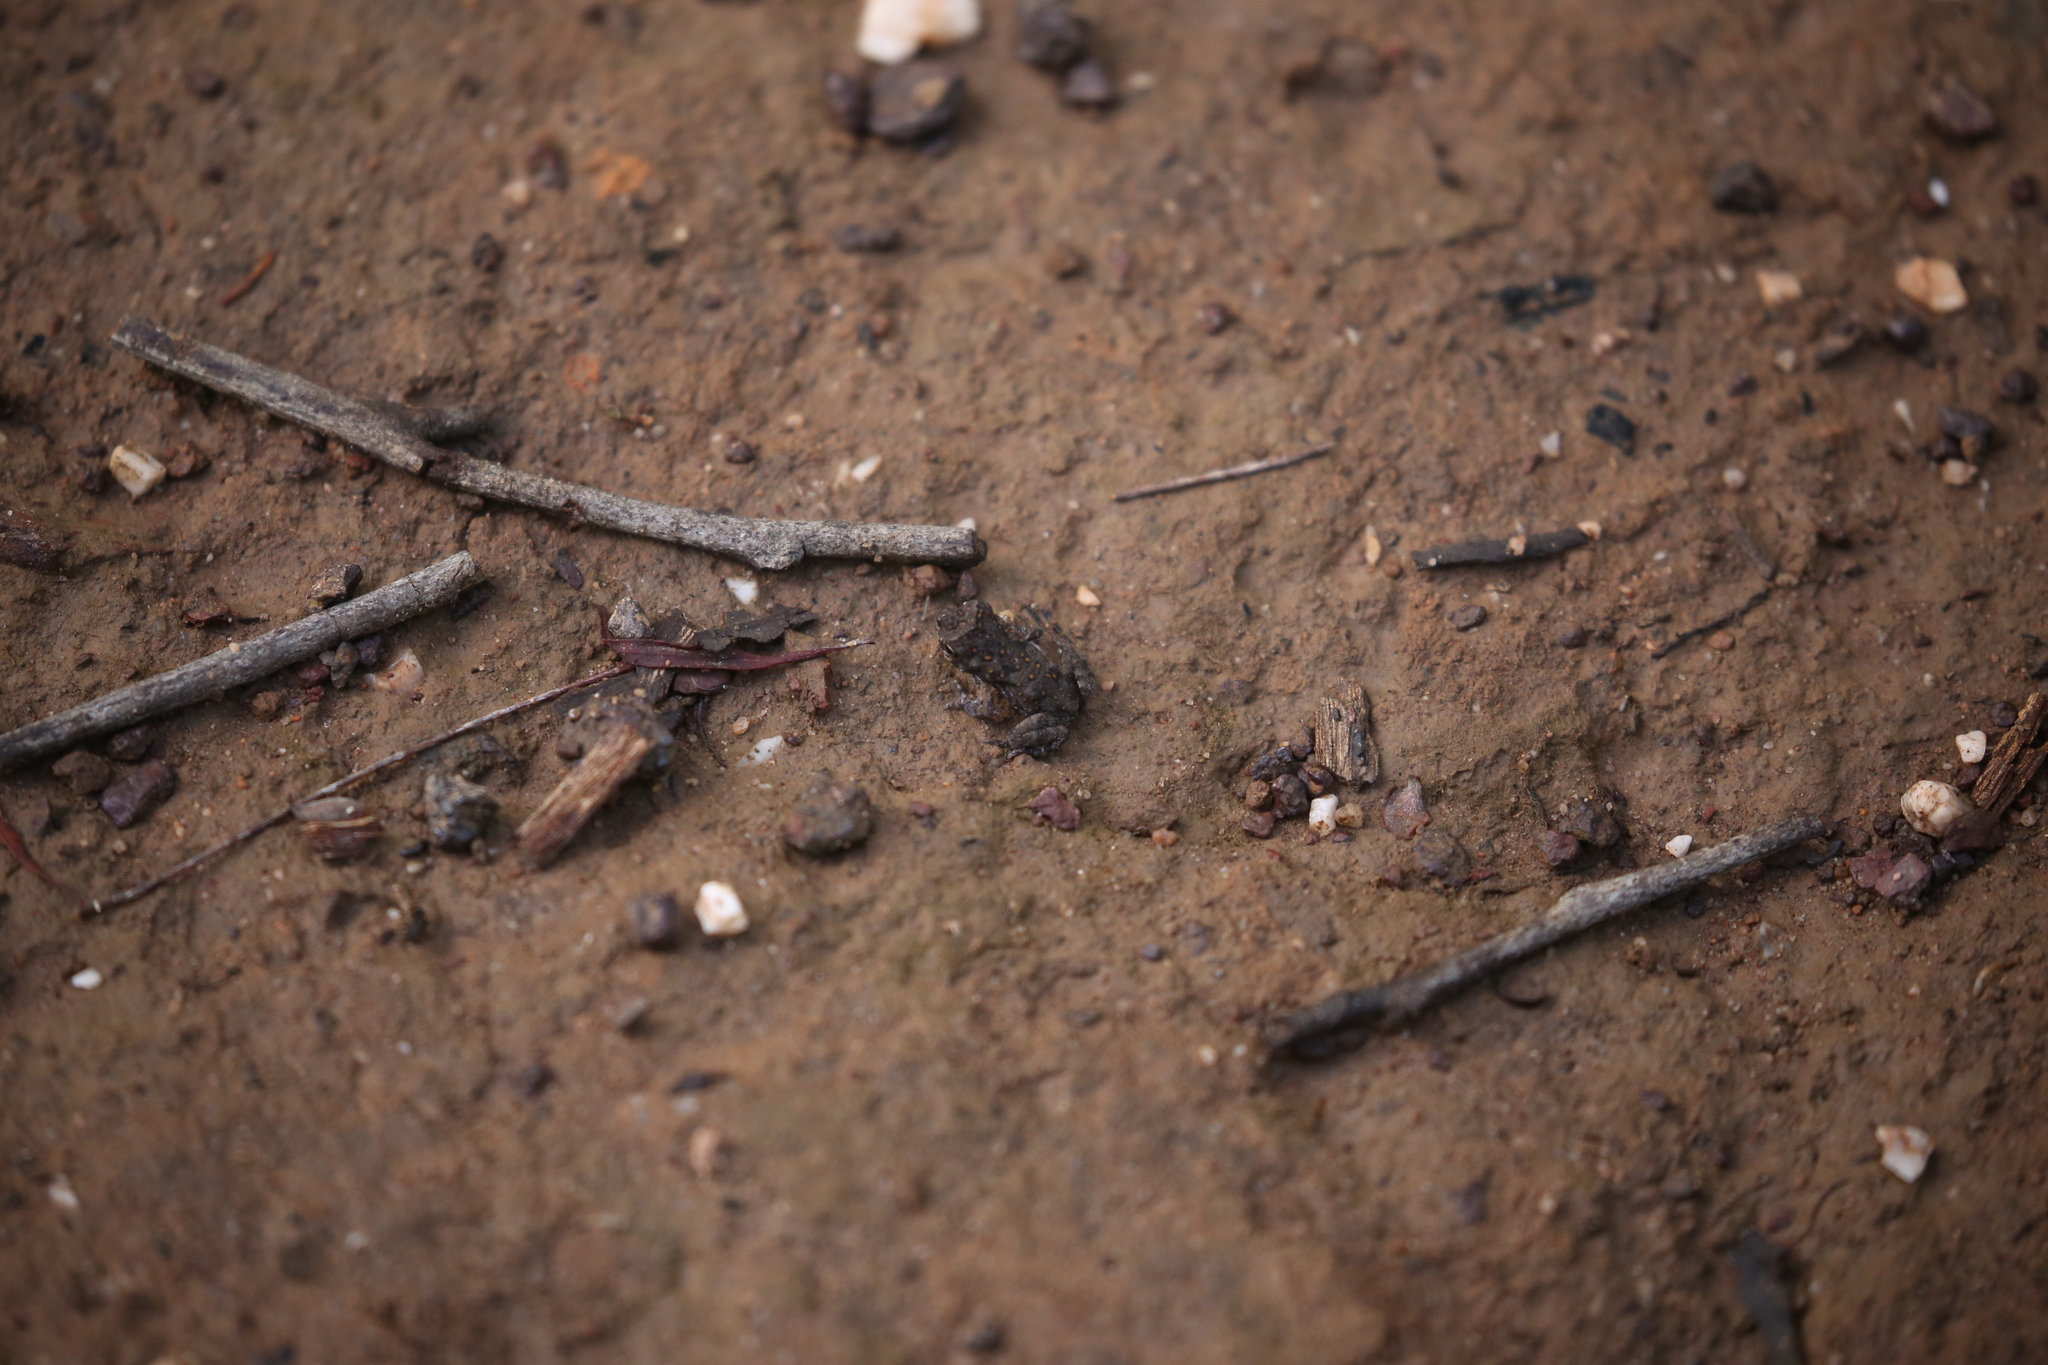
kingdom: Animalia
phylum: Chordata
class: Amphibia
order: Anura
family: Bufonidae
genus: Rhinella
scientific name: Rhinella marina
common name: Cane toad
